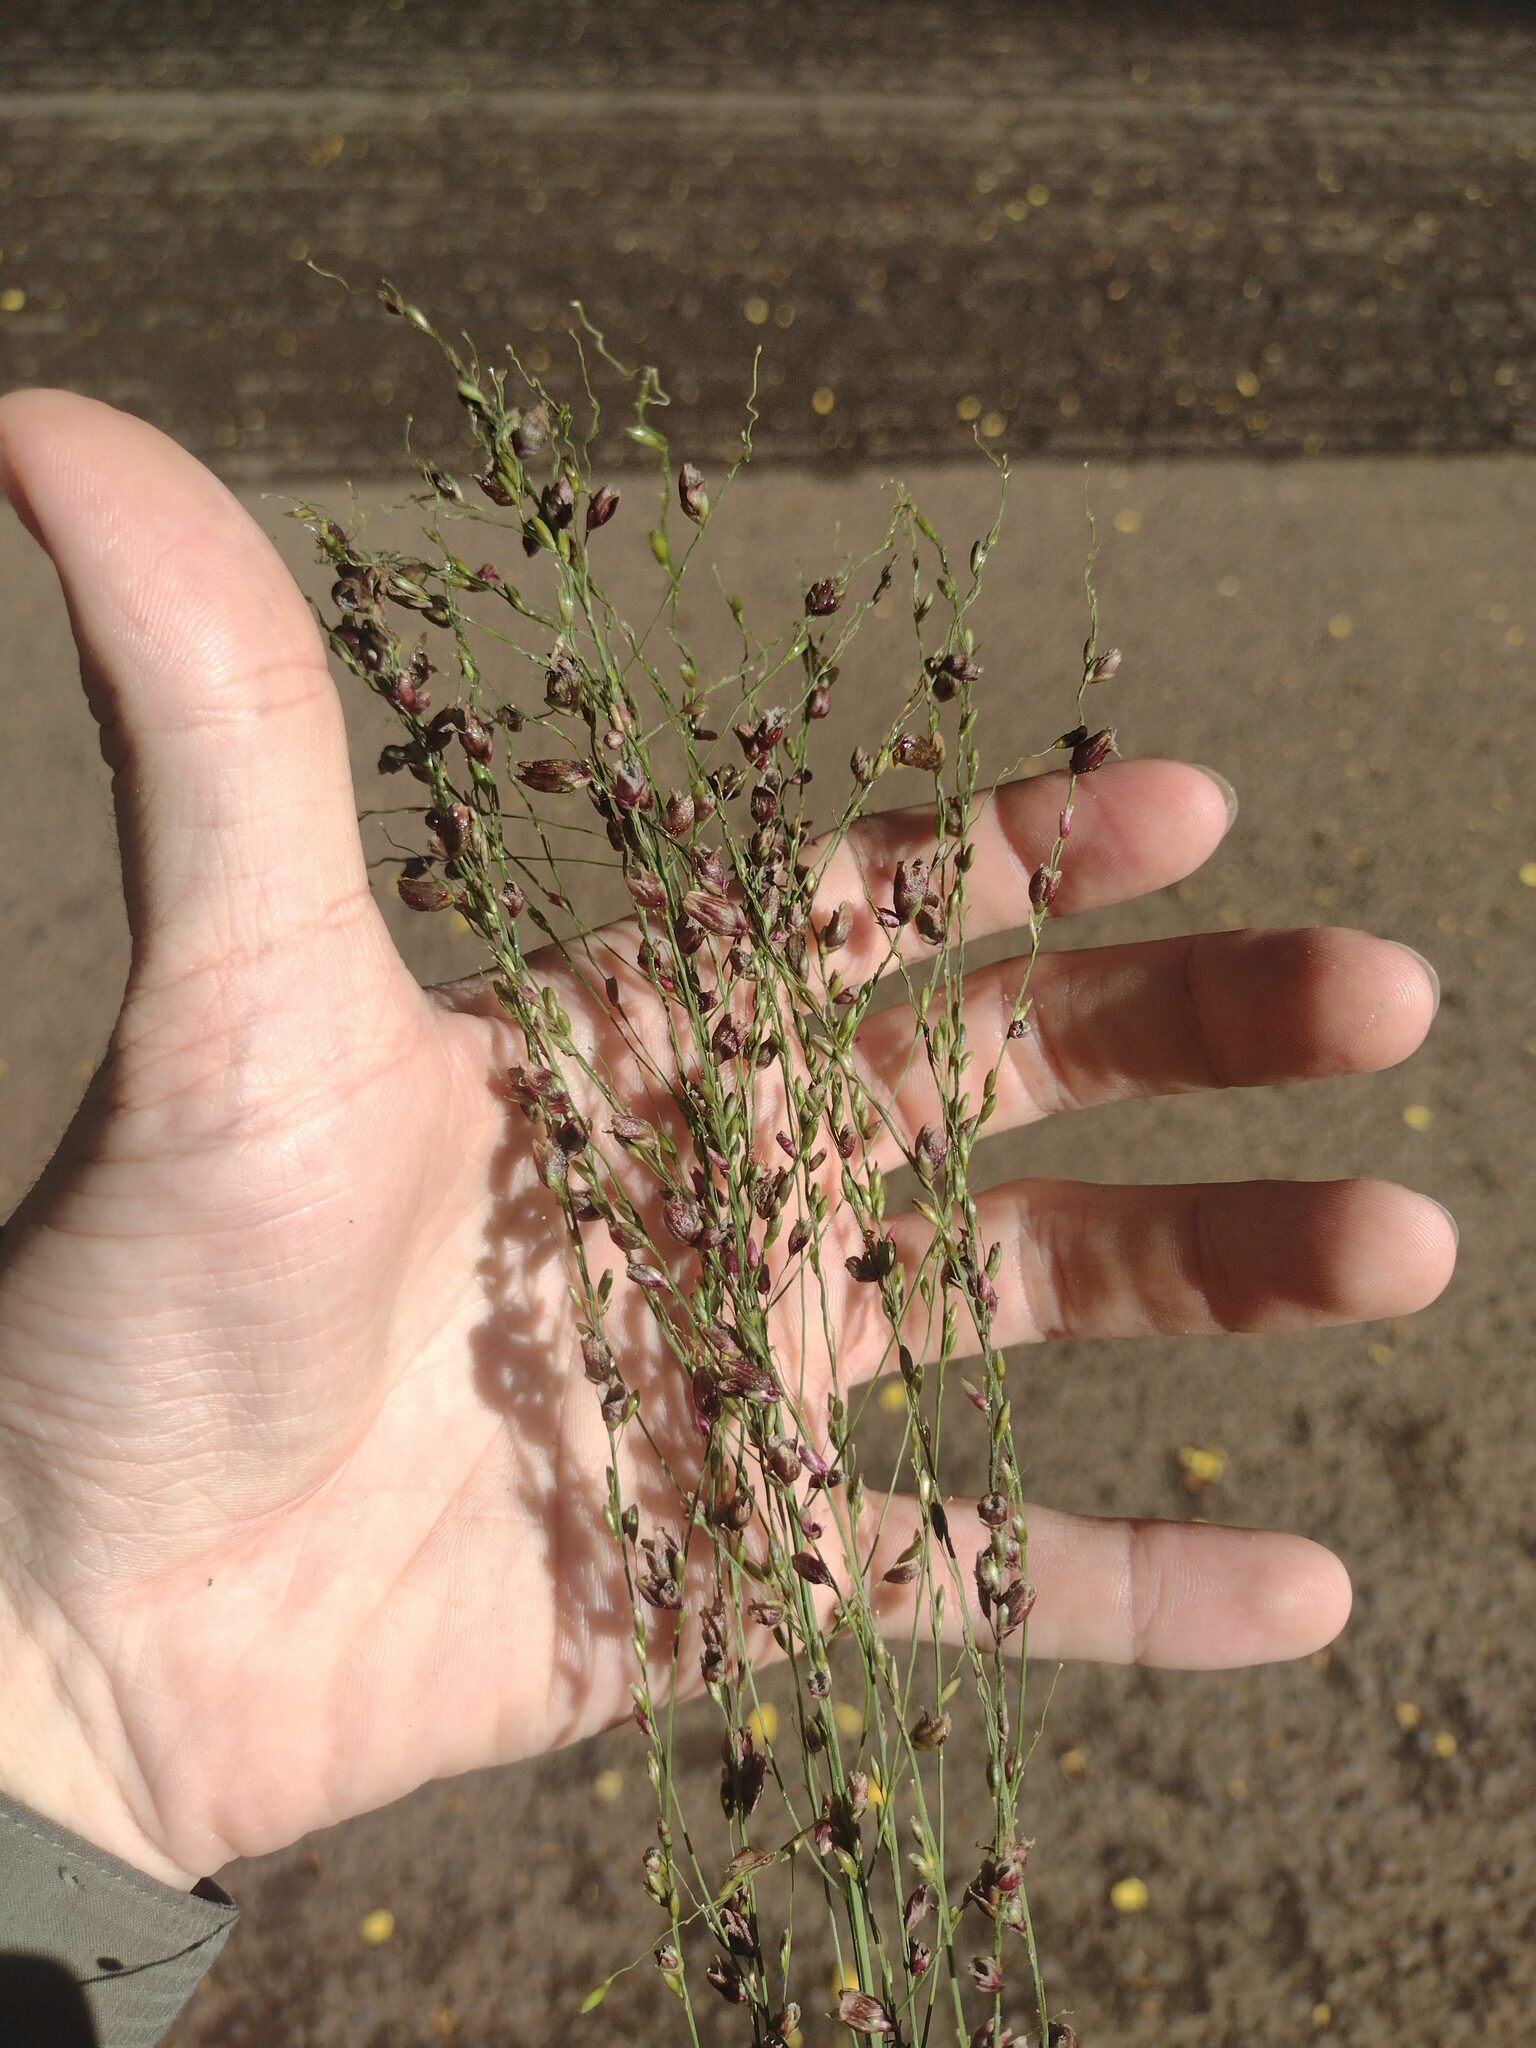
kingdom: Fungi
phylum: Basidiomycota
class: Exobasidiomycetes
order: Tilletiales
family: Tilletiaceae
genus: Conidiosporomyces
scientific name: Conidiosporomyces ayresii
